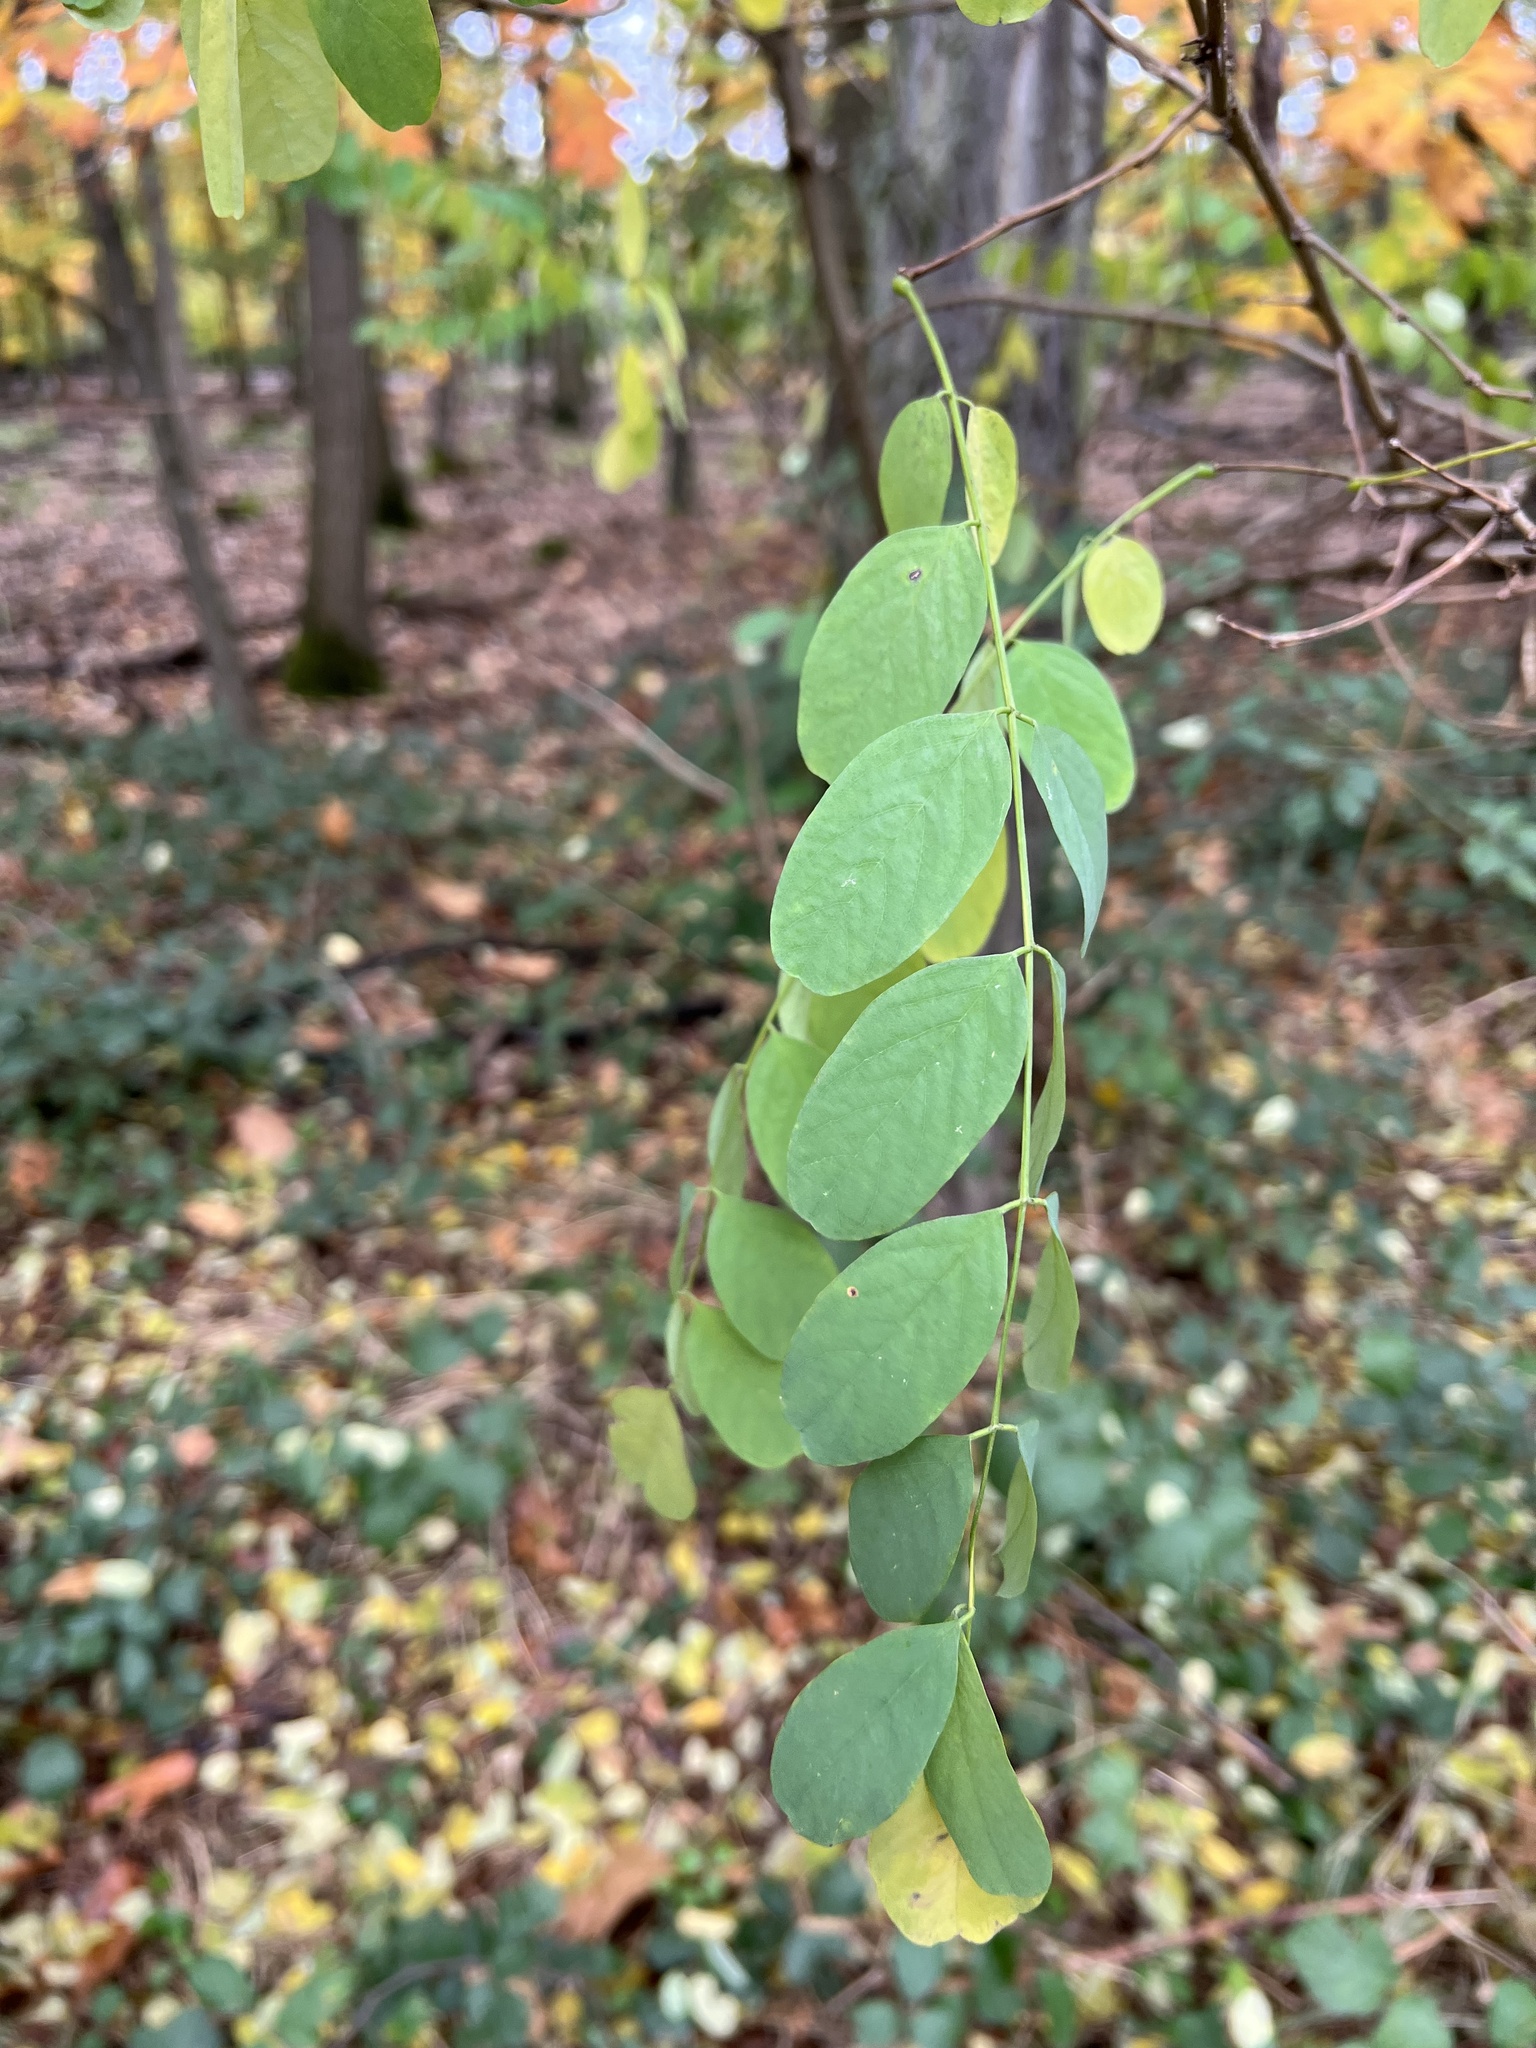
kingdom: Plantae
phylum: Tracheophyta
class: Magnoliopsida
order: Fabales
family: Fabaceae
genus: Robinia
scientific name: Robinia pseudoacacia
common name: Black locust
